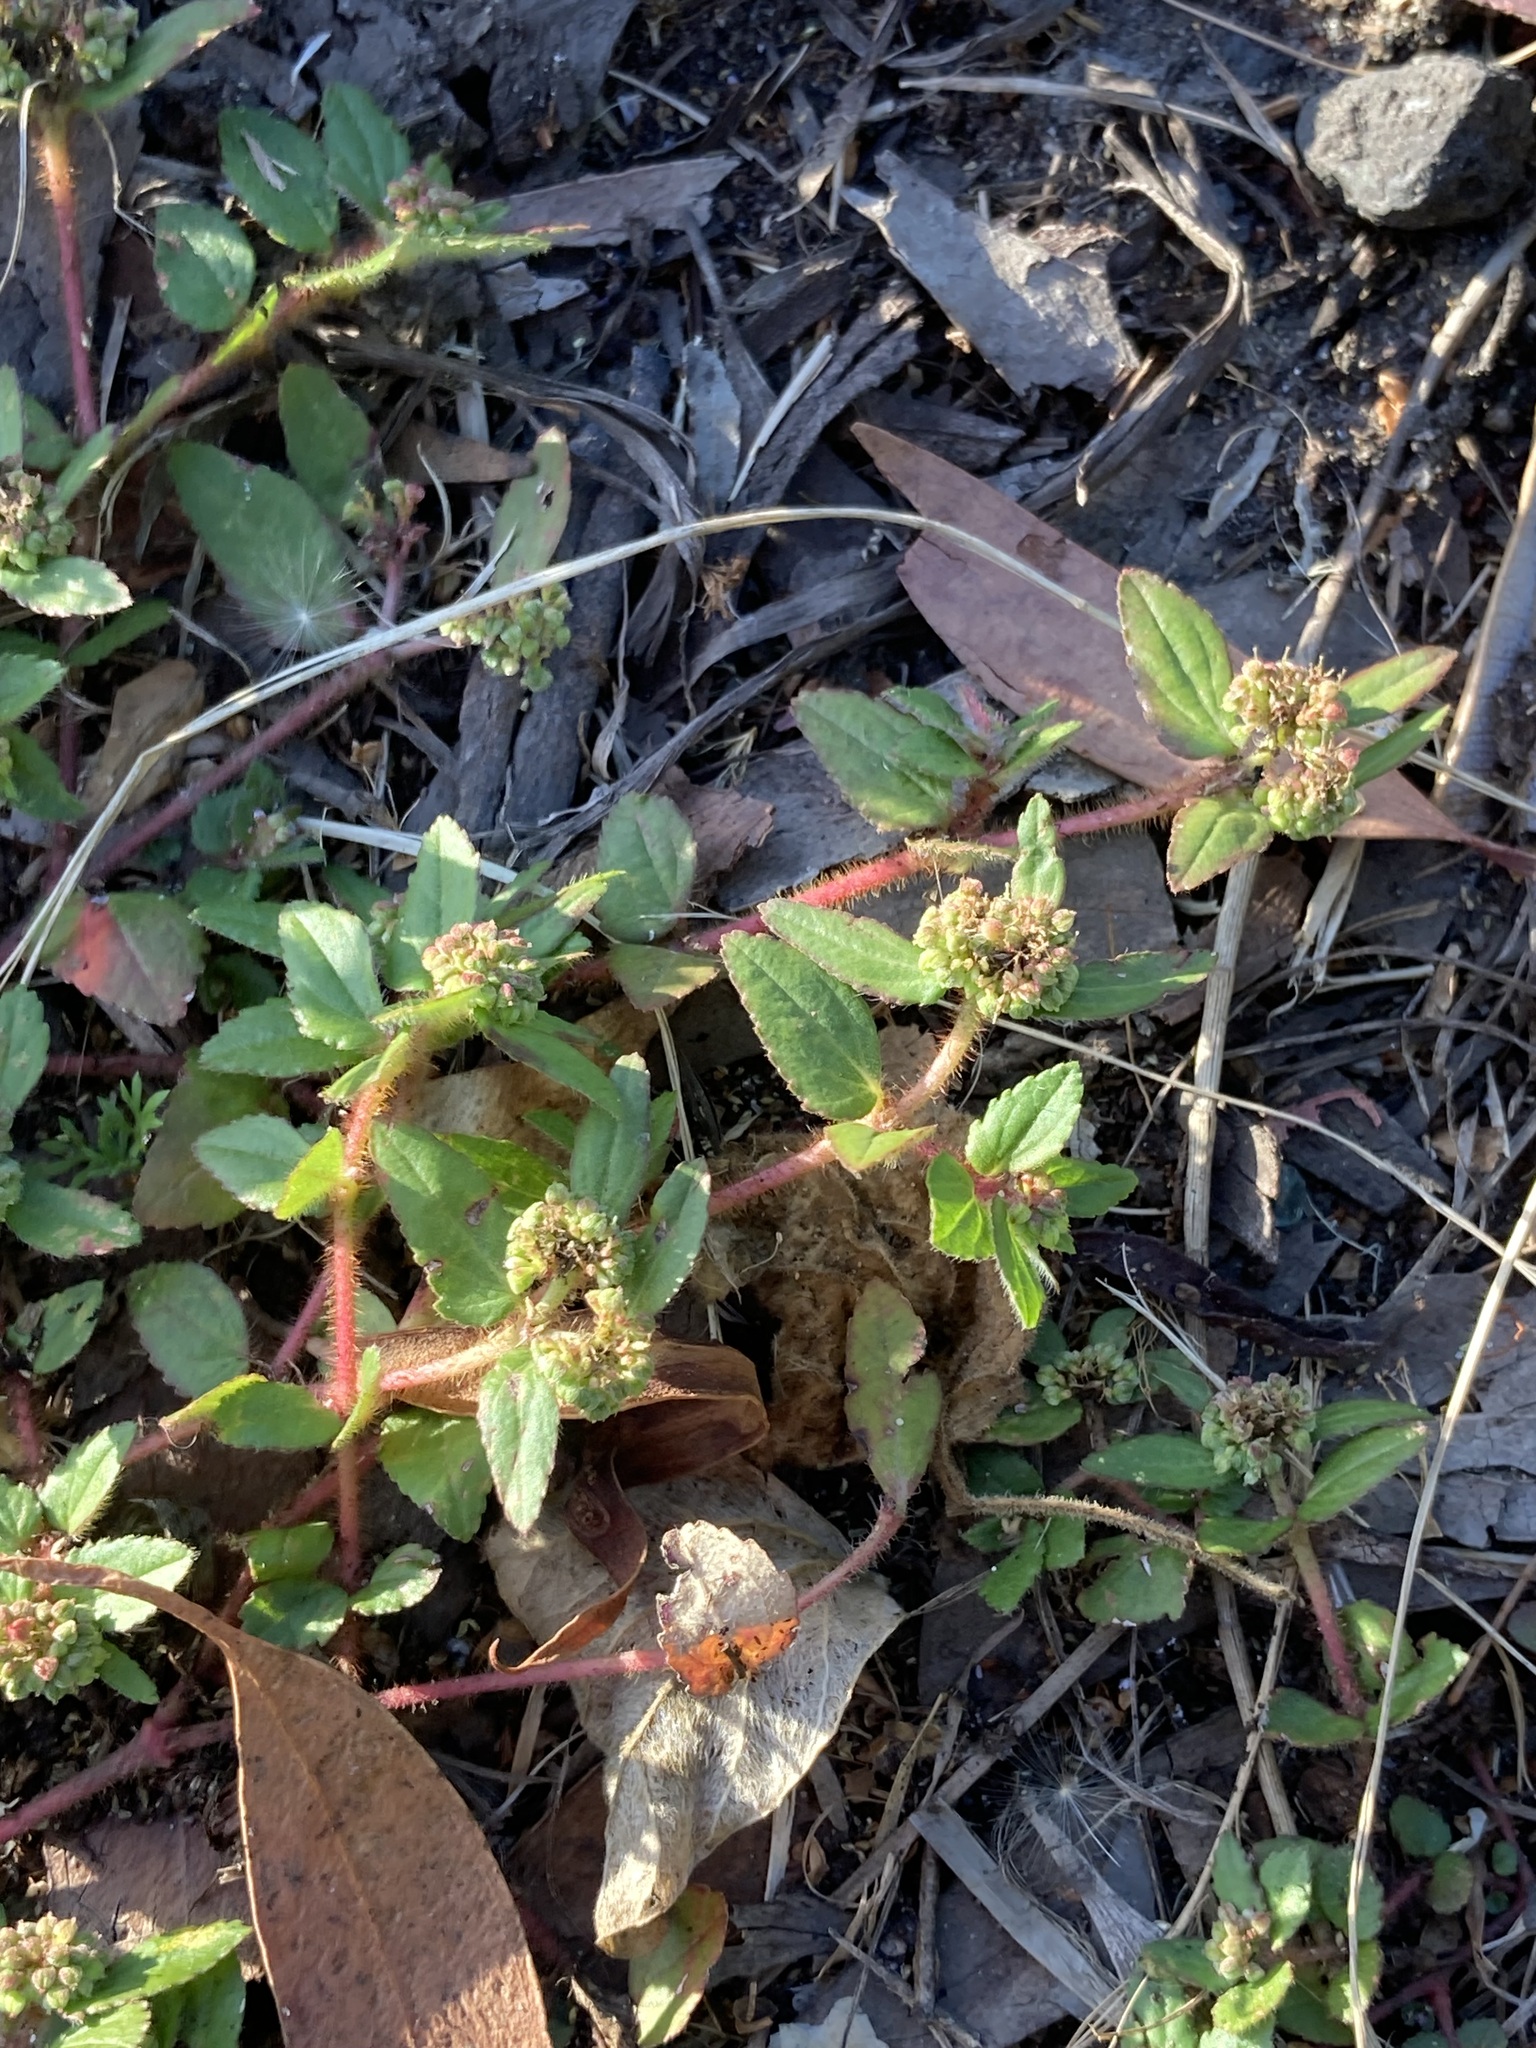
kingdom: Plantae
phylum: Tracheophyta
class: Magnoliopsida
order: Malpighiales
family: Euphorbiaceae
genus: Euphorbia
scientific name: Euphorbia ophthalmica
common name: Florida hammock sandmat
